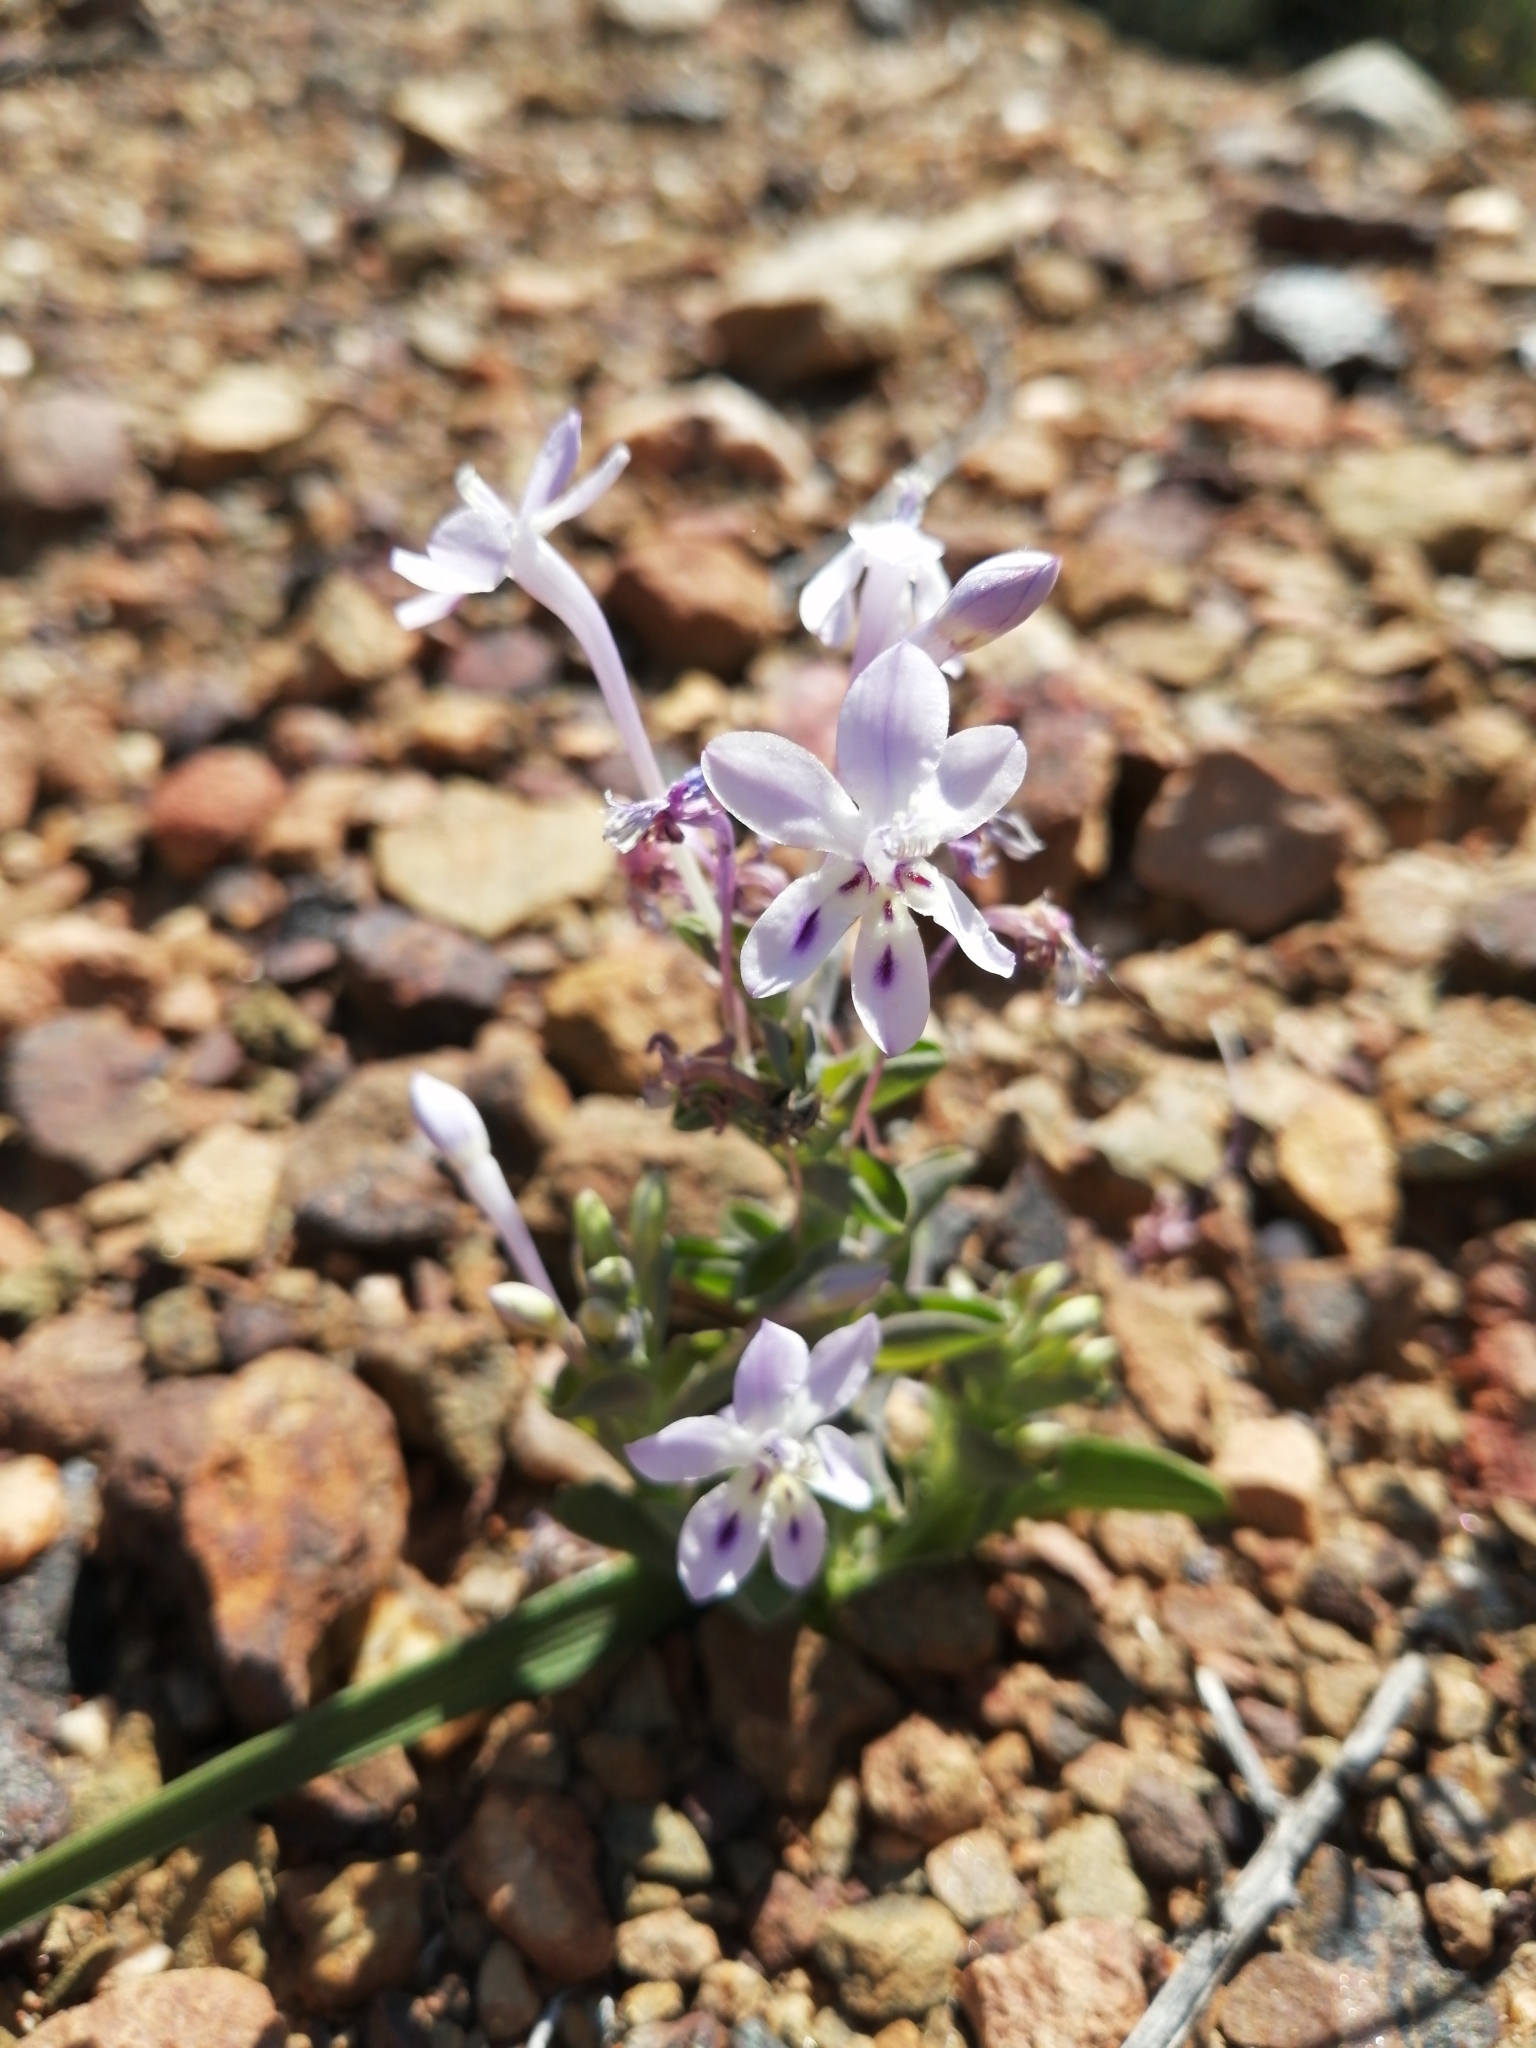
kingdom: Plantae
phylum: Tracheophyta
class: Liliopsida
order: Asparagales
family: Iridaceae
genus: Lapeirousia
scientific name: Lapeirousia pyramidalis
